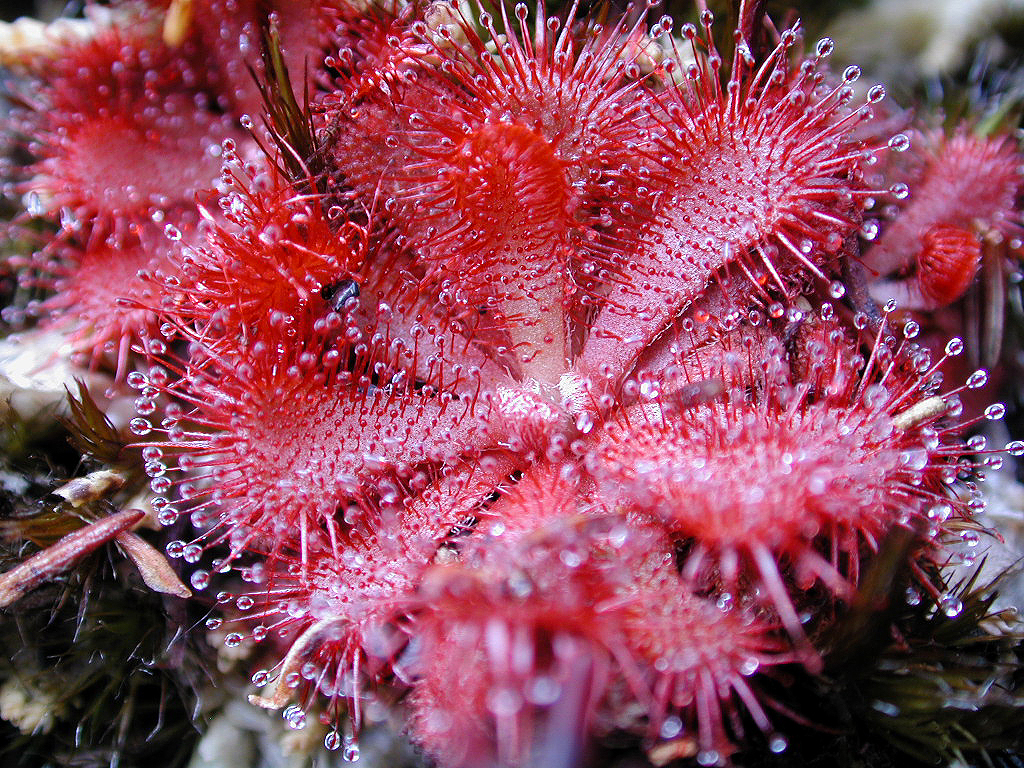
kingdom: Plantae
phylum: Tracheophyta
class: Magnoliopsida
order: Caryophyllales
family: Droseraceae
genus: Drosera
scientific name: Drosera aliciae
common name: Alice sundew
